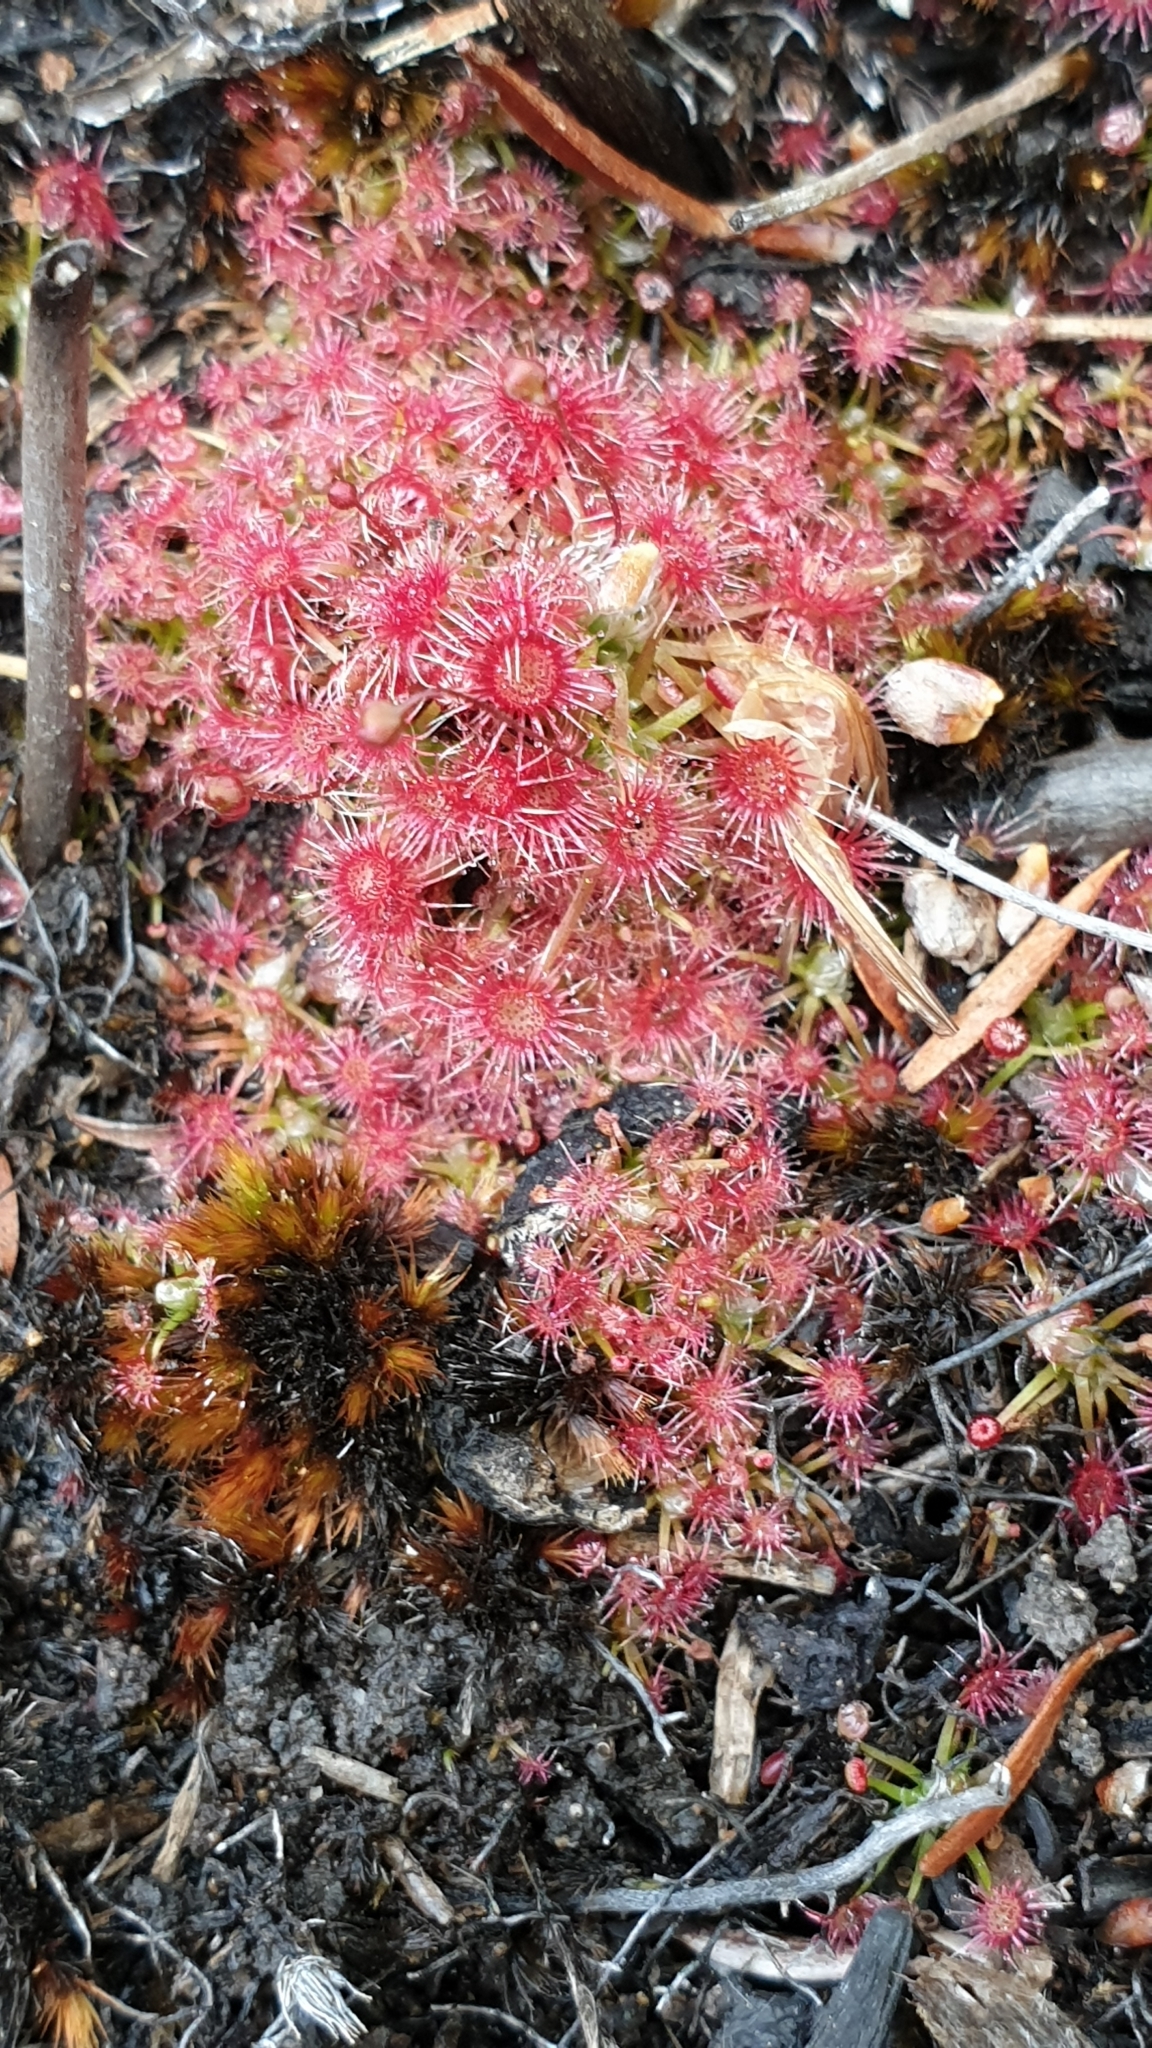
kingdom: Plantae
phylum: Tracheophyta
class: Magnoliopsida
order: Caryophyllales
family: Droseraceae
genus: Drosera
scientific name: Drosera pygmaea
